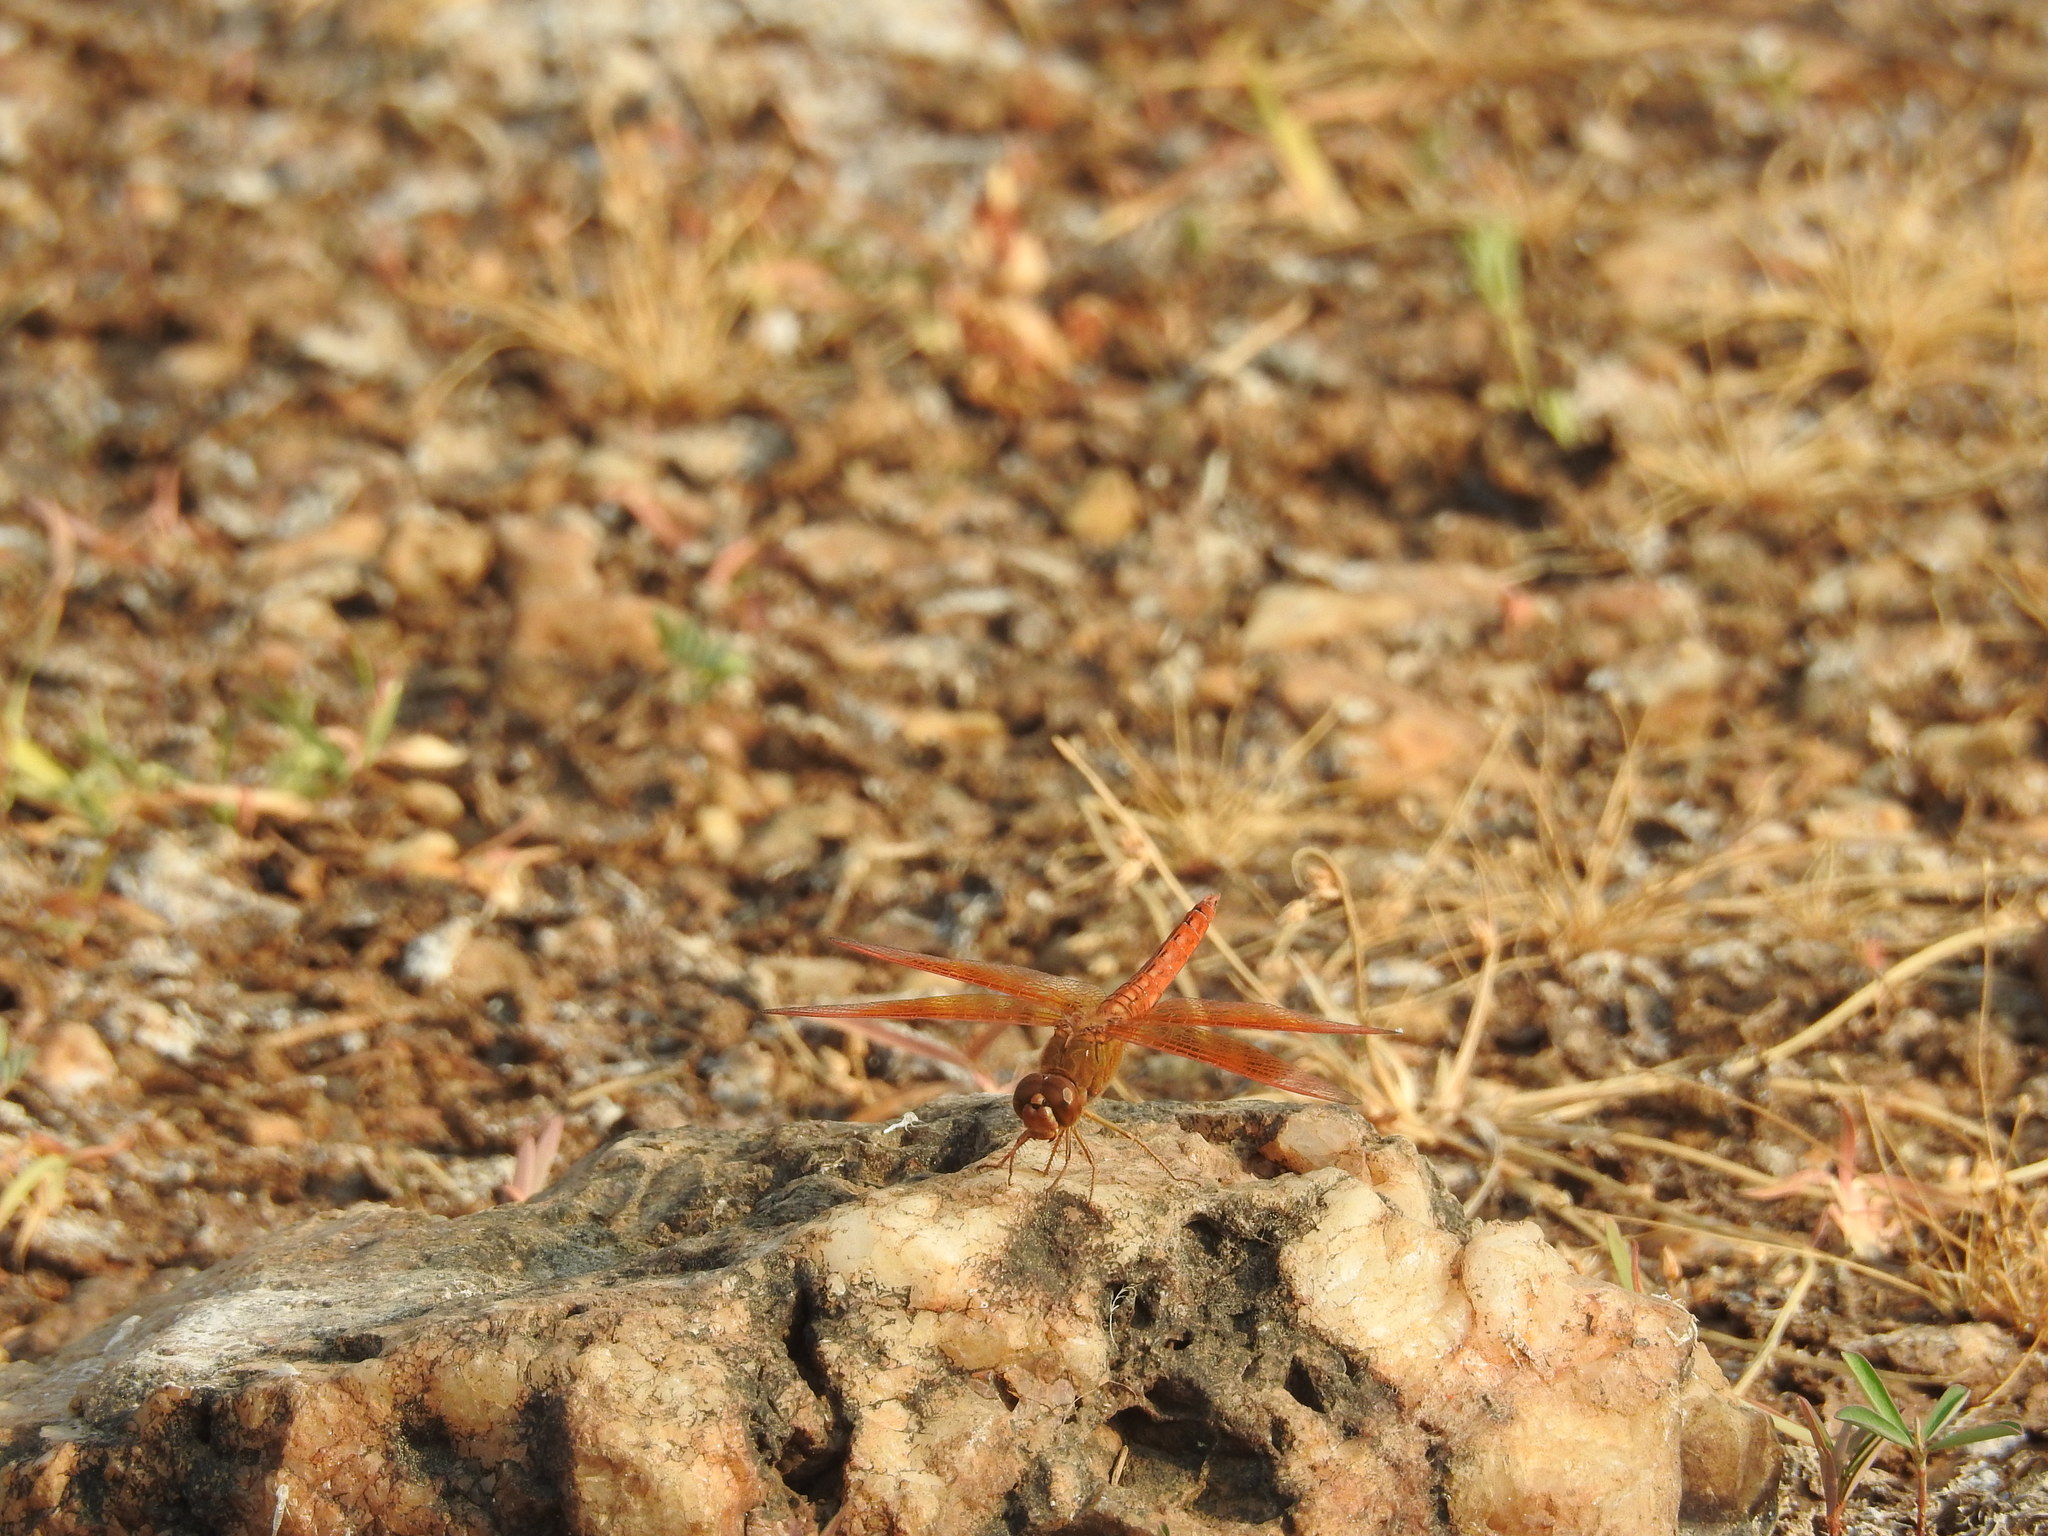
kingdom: Animalia
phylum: Arthropoda
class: Insecta
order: Odonata
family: Libellulidae
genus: Brachythemis
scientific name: Brachythemis contaminata
